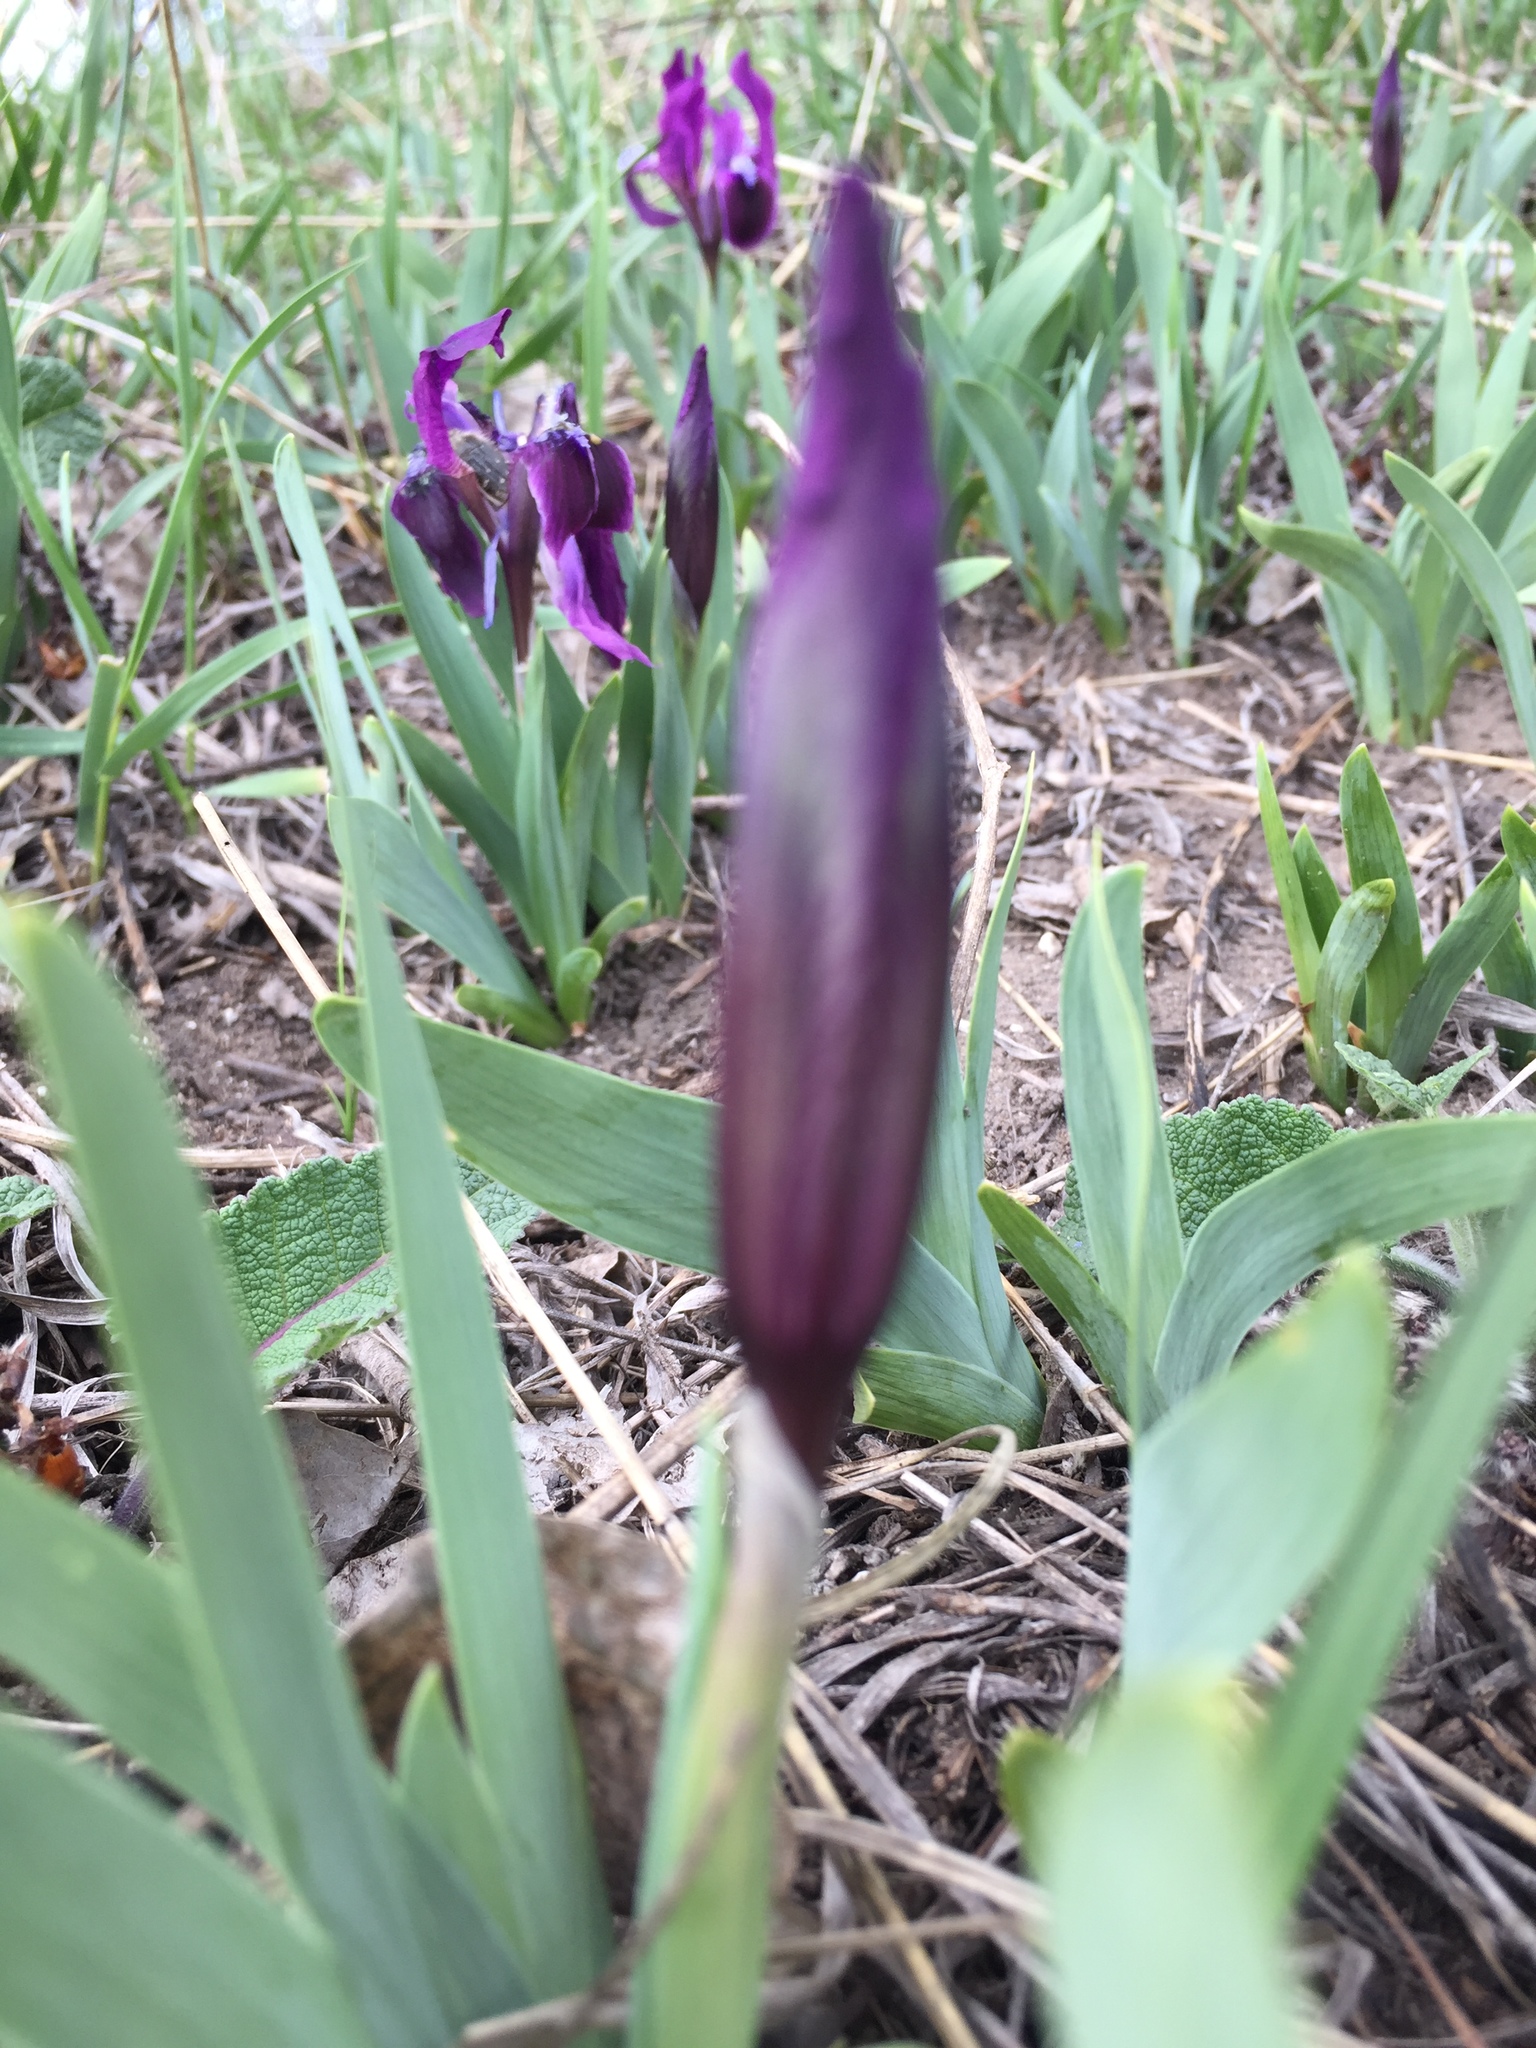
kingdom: Plantae
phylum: Tracheophyta
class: Liliopsida
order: Asparagales
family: Iridaceae
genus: Iris
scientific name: Iris pumila
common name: Dwarf iris
